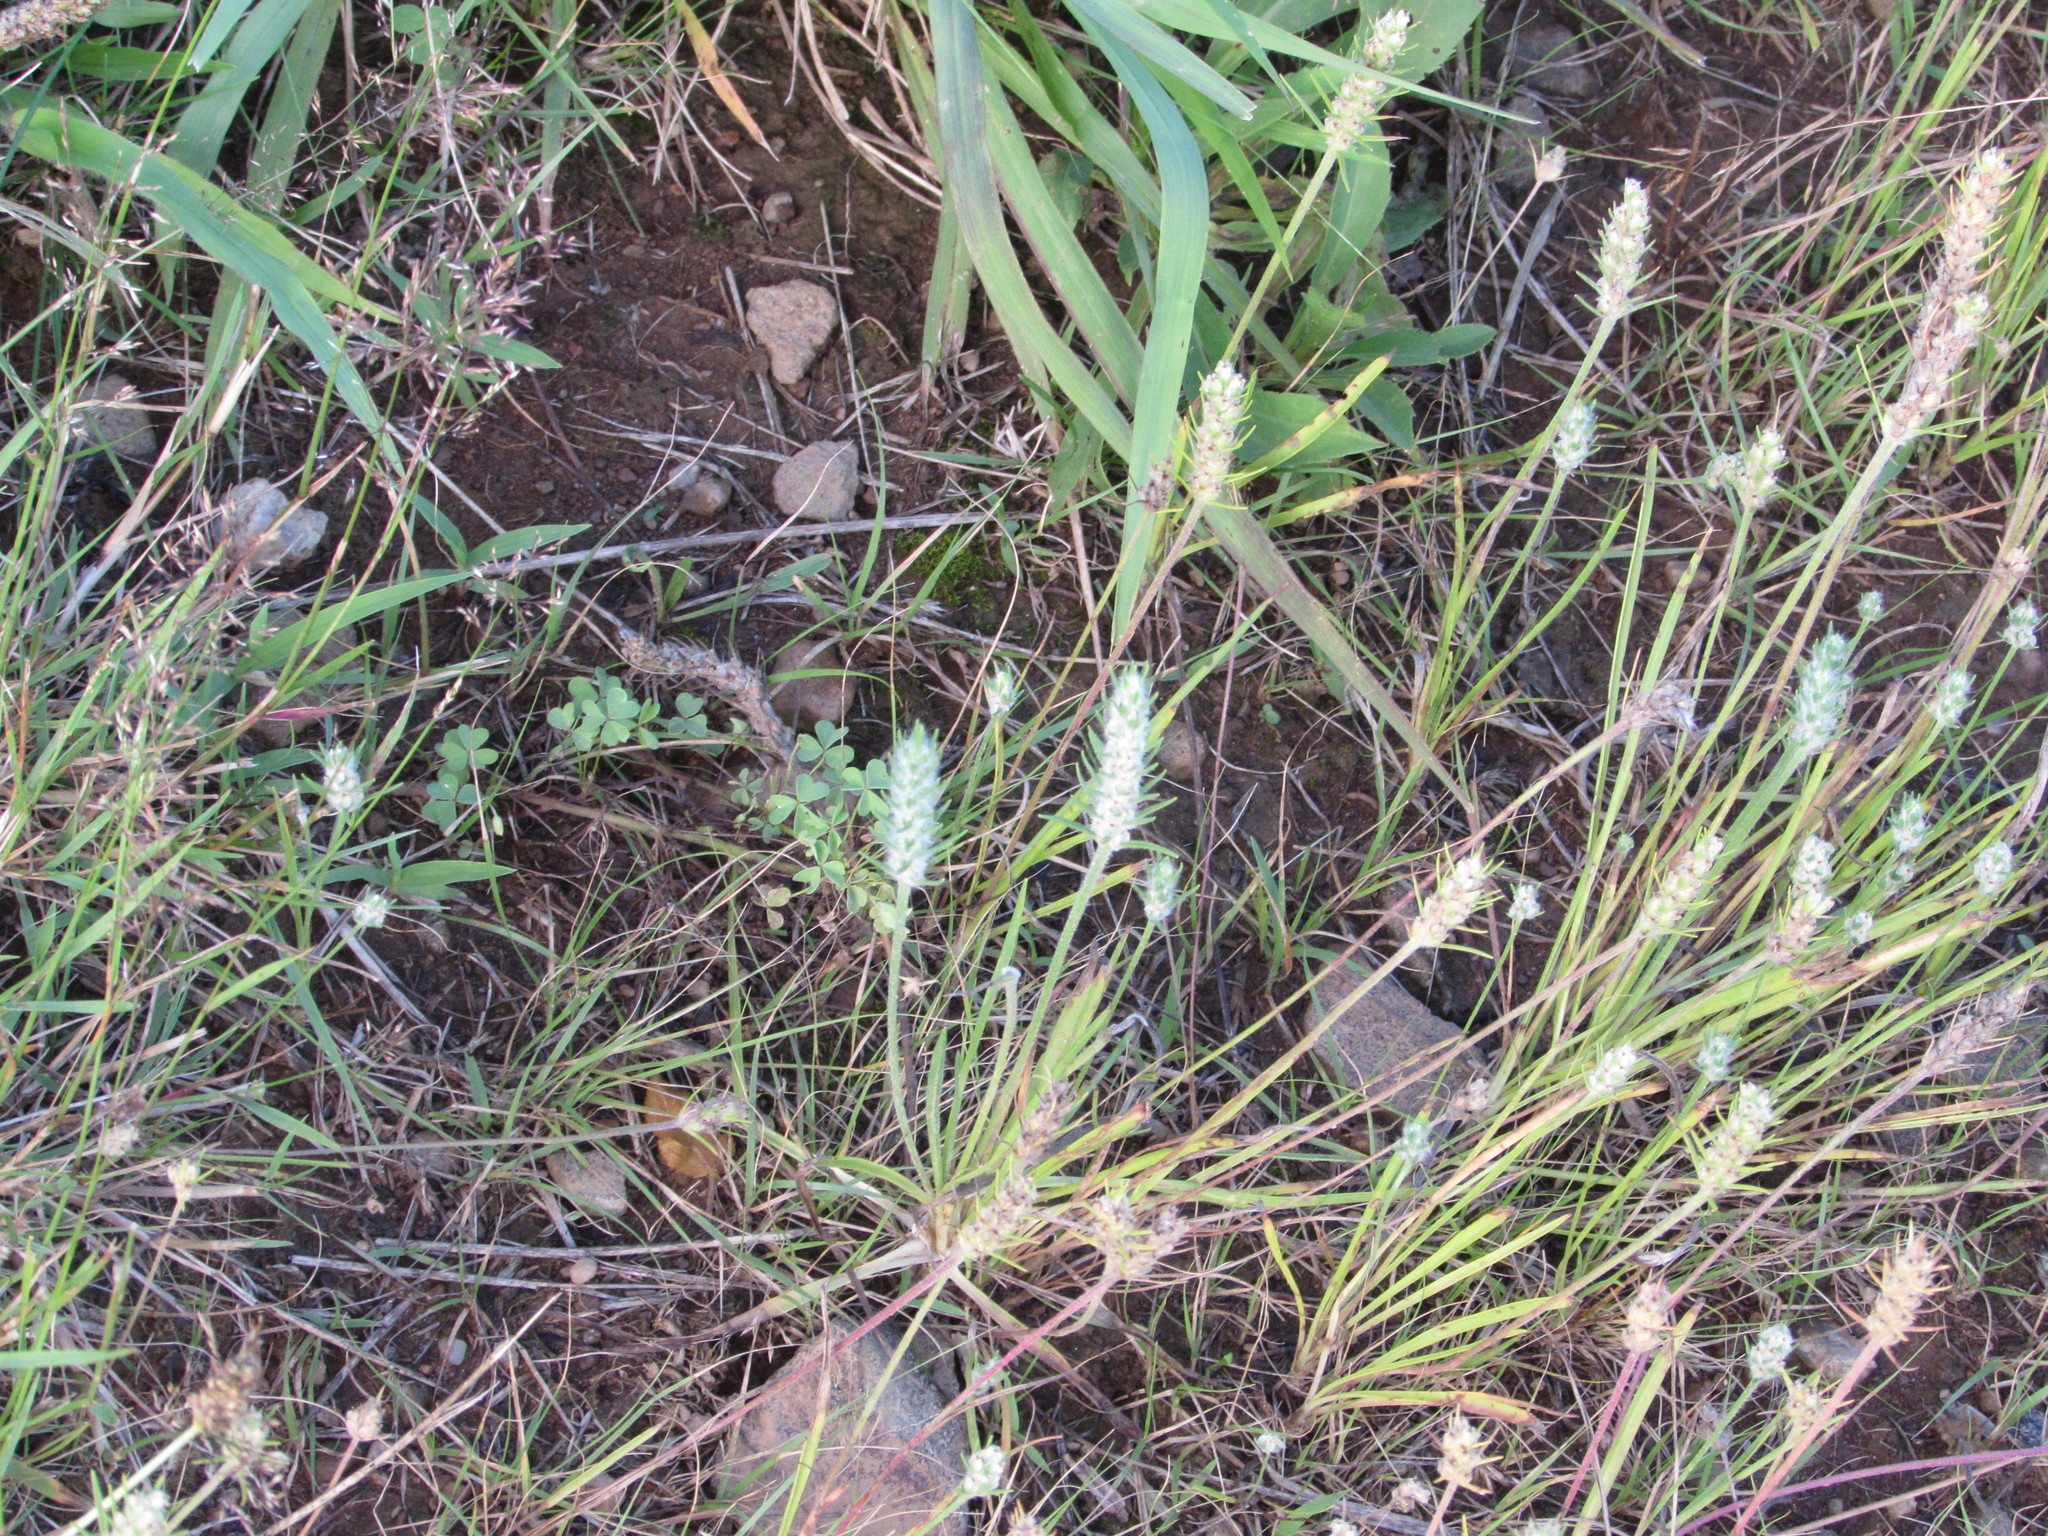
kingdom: Plantae
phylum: Tracheophyta
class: Magnoliopsida
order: Lamiales
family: Plantaginaceae
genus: Plantago
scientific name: Plantago aristata
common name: Bracted plantain
